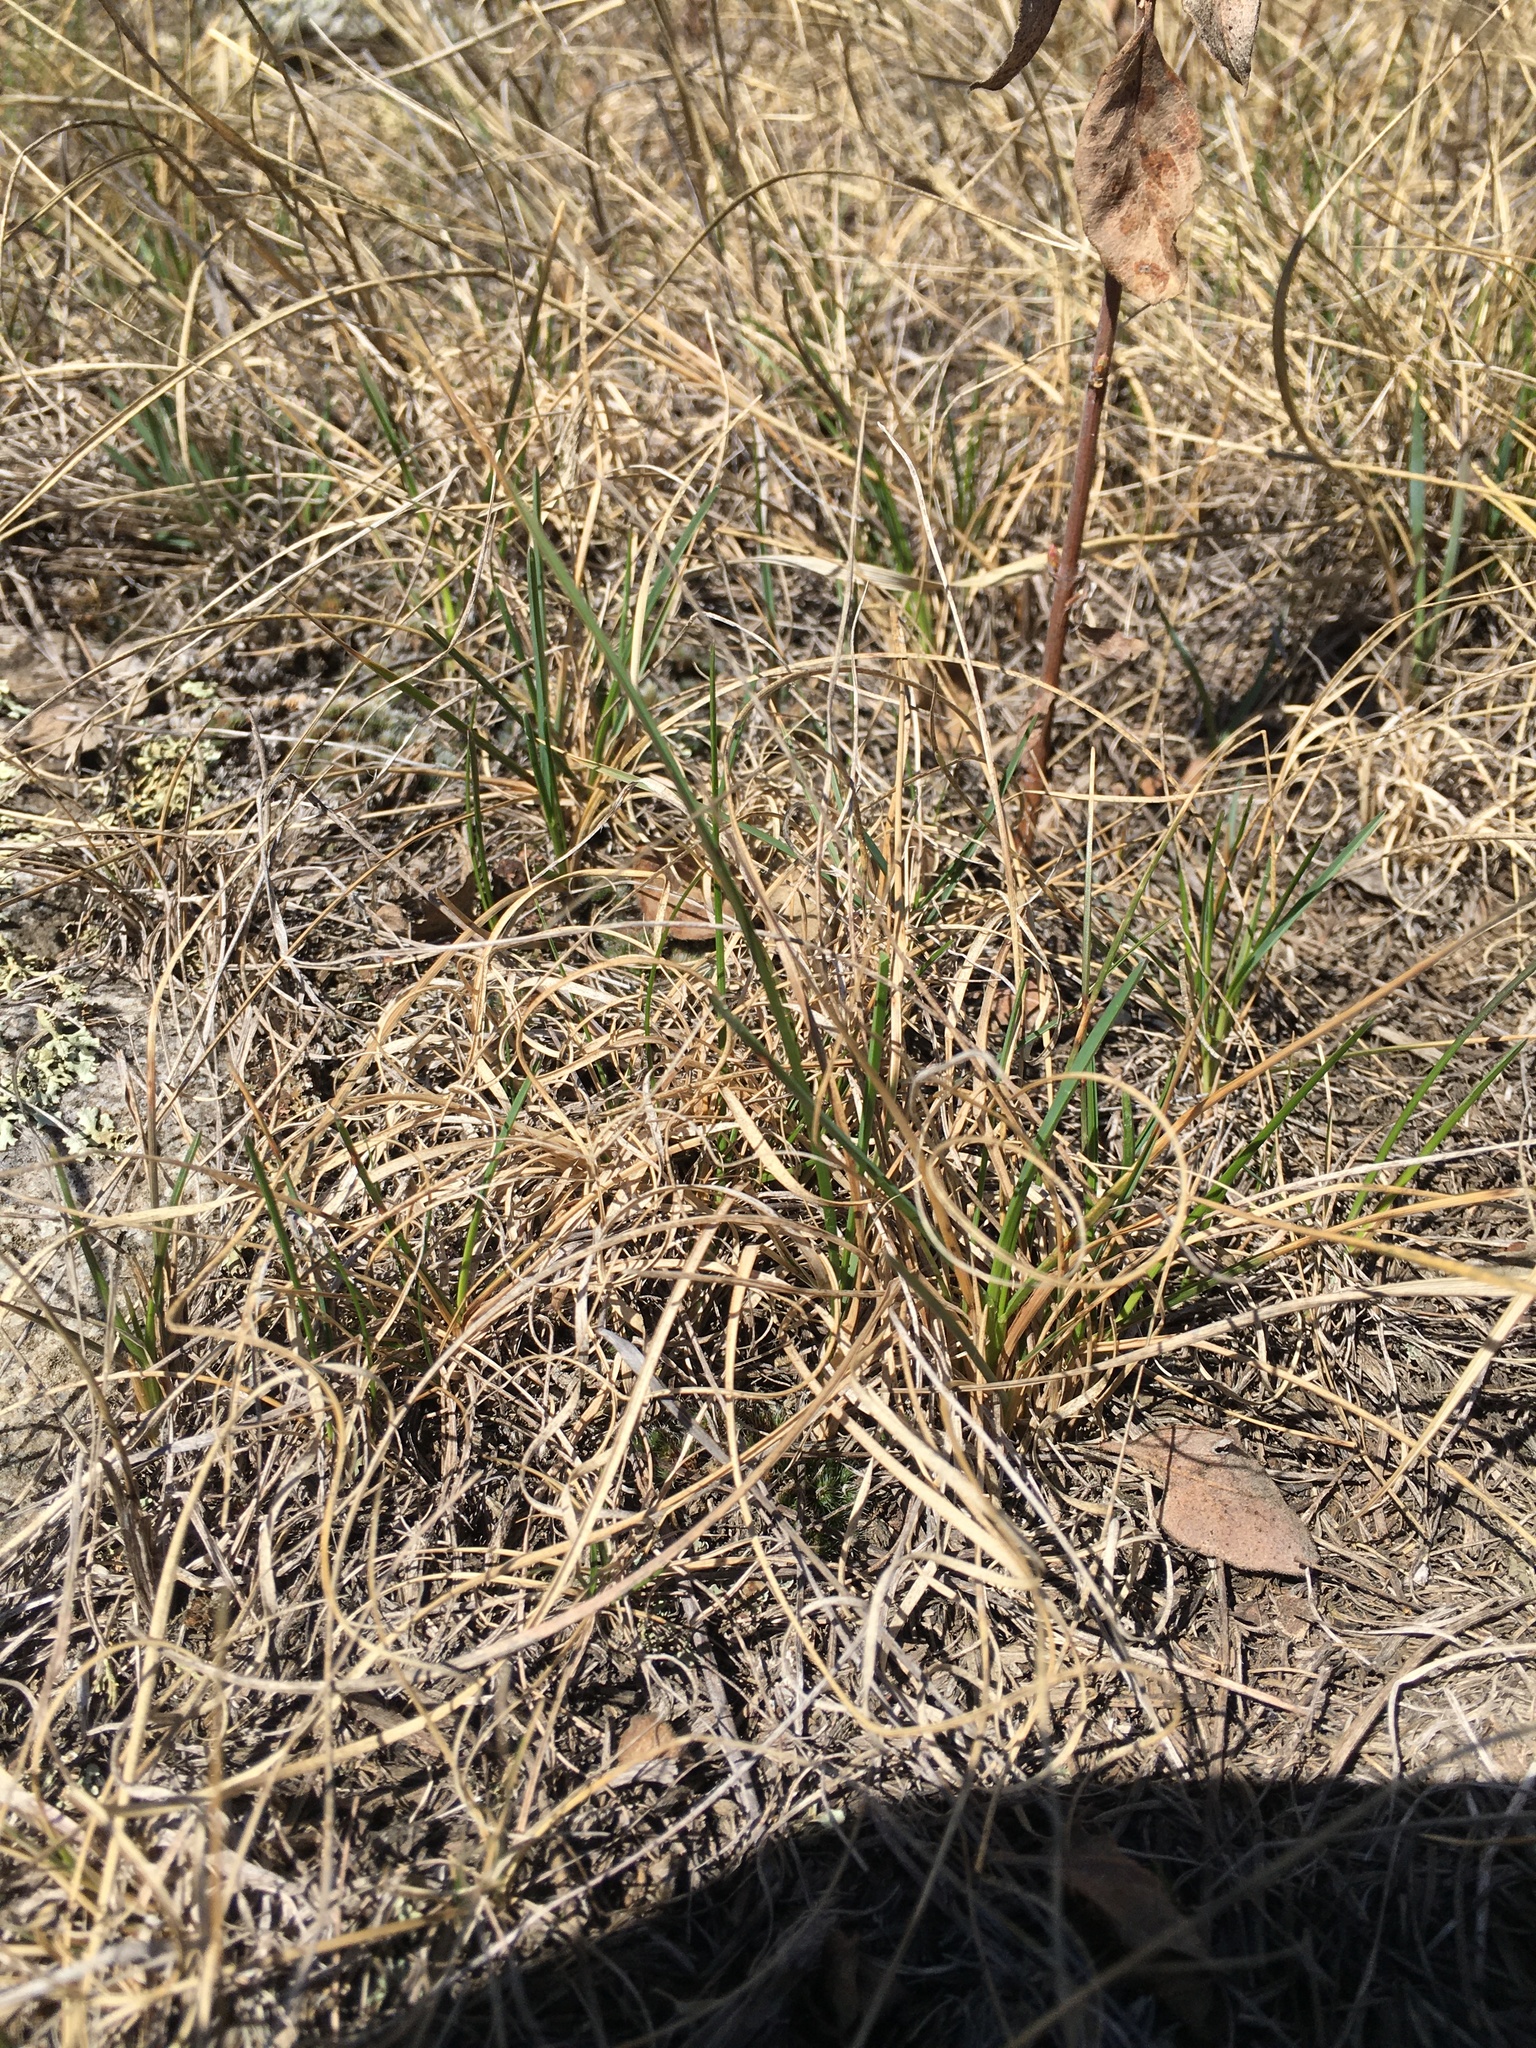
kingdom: Plantae
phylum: Tracheophyta
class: Liliopsida
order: Poales
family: Poaceae
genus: Bouteloua
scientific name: Bouteloua gracilis
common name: Blue grama
